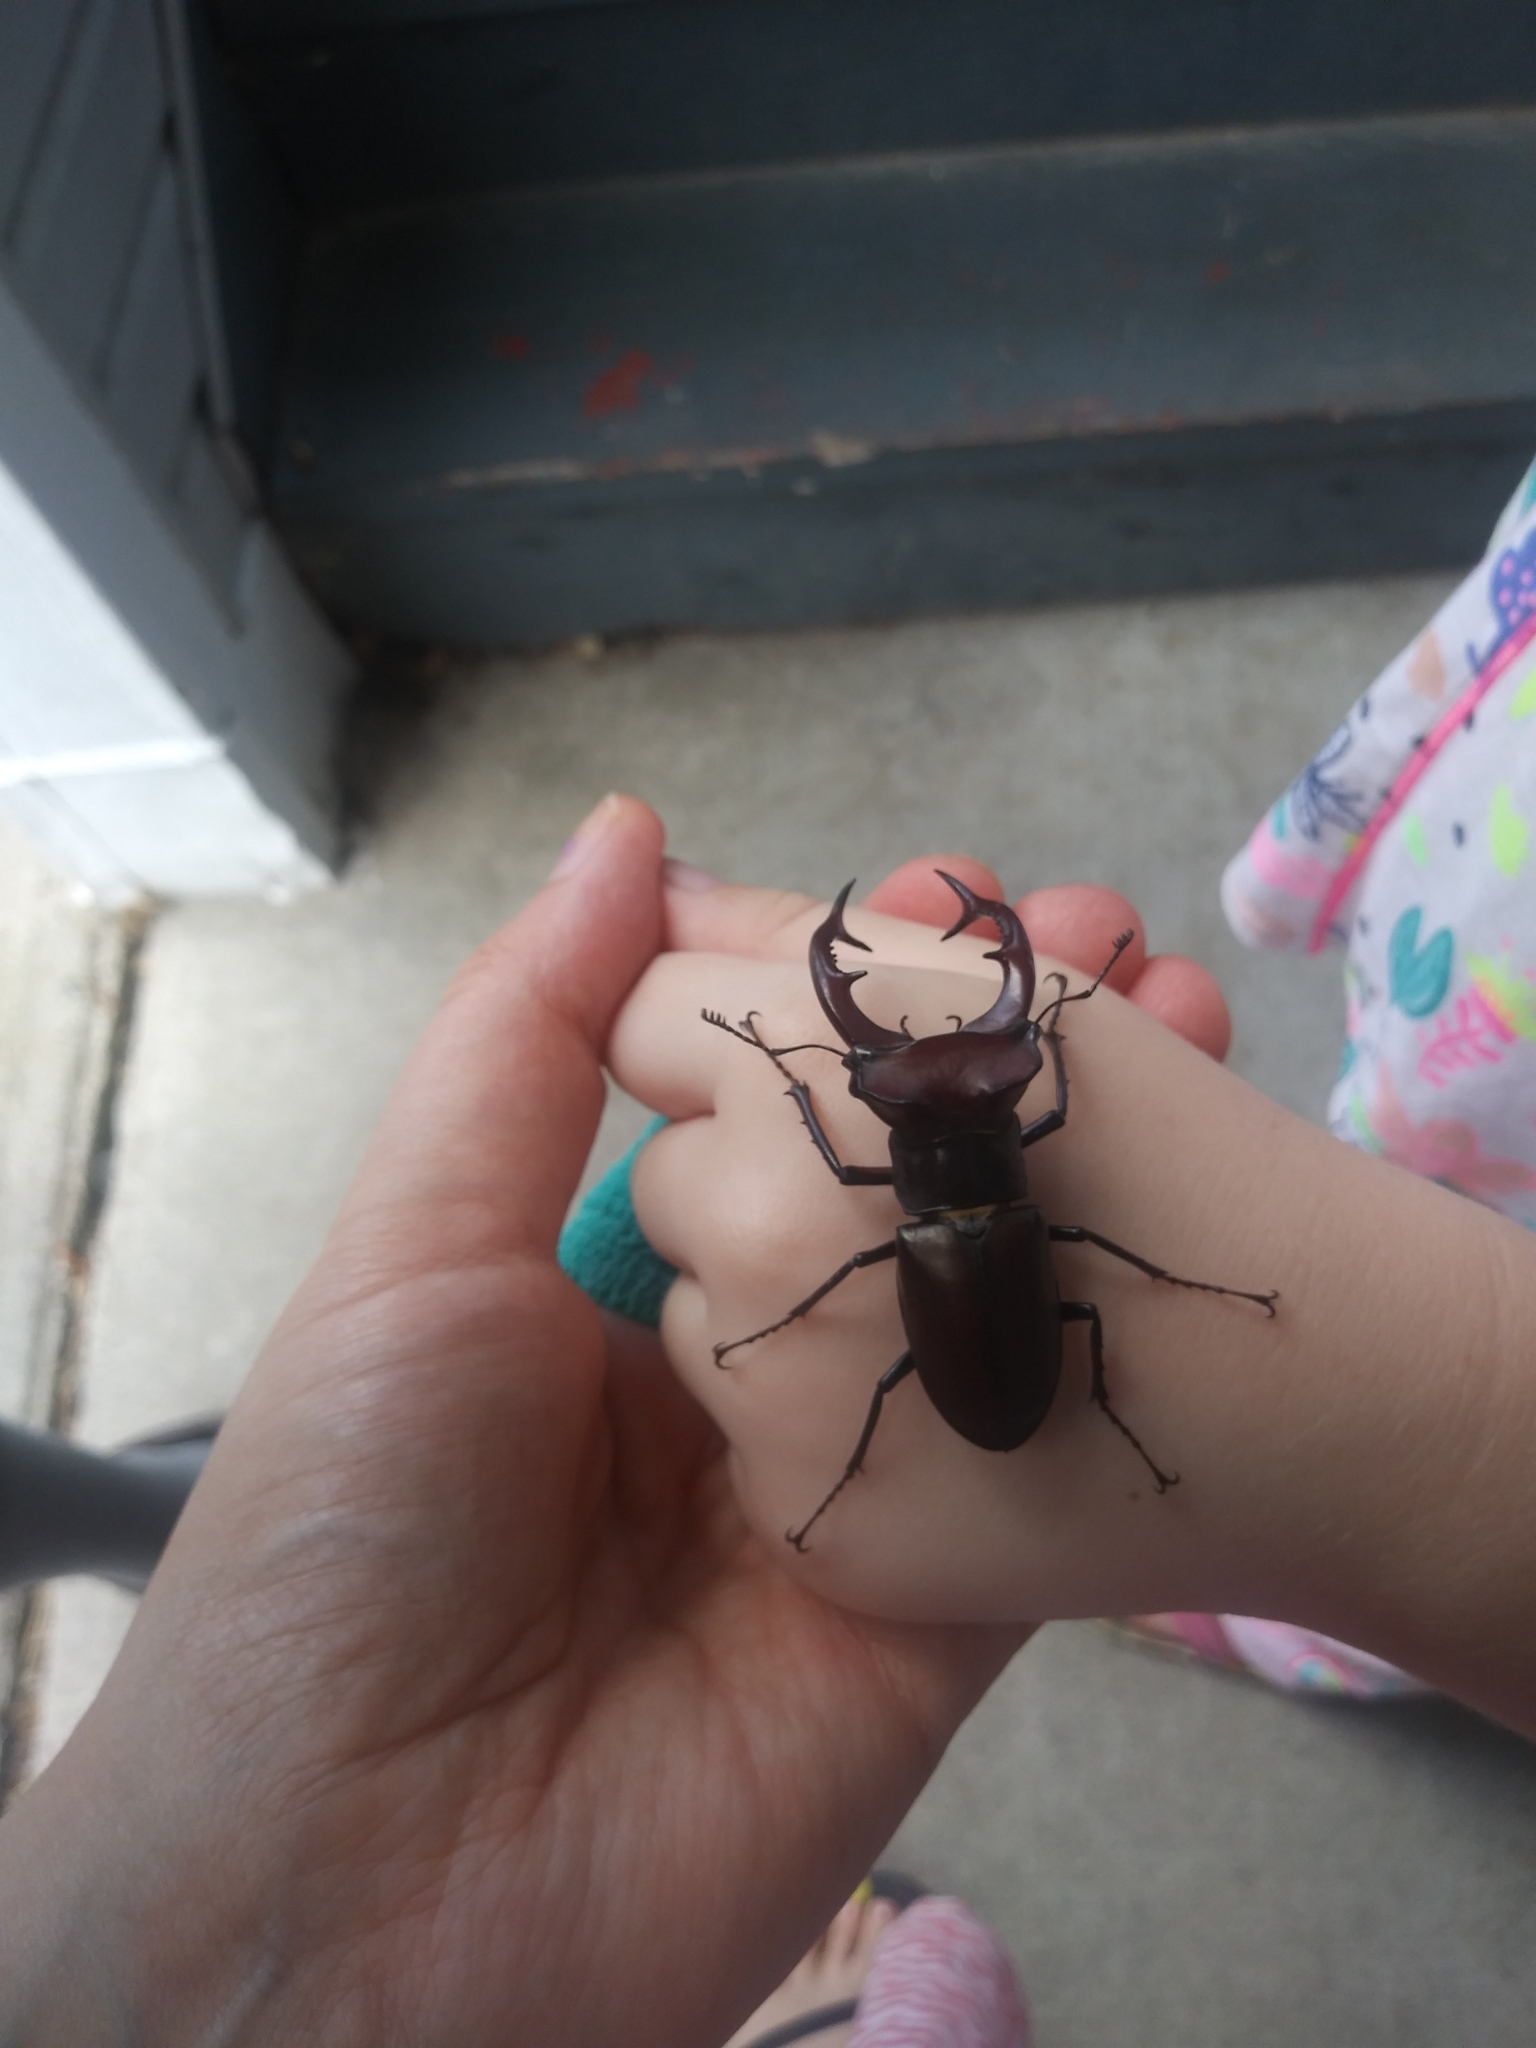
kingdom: Animalia
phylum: Arthropoda
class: Insecta
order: Coleoptera
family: Lucanidae
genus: Lucanus
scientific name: Lucanus elaphus
